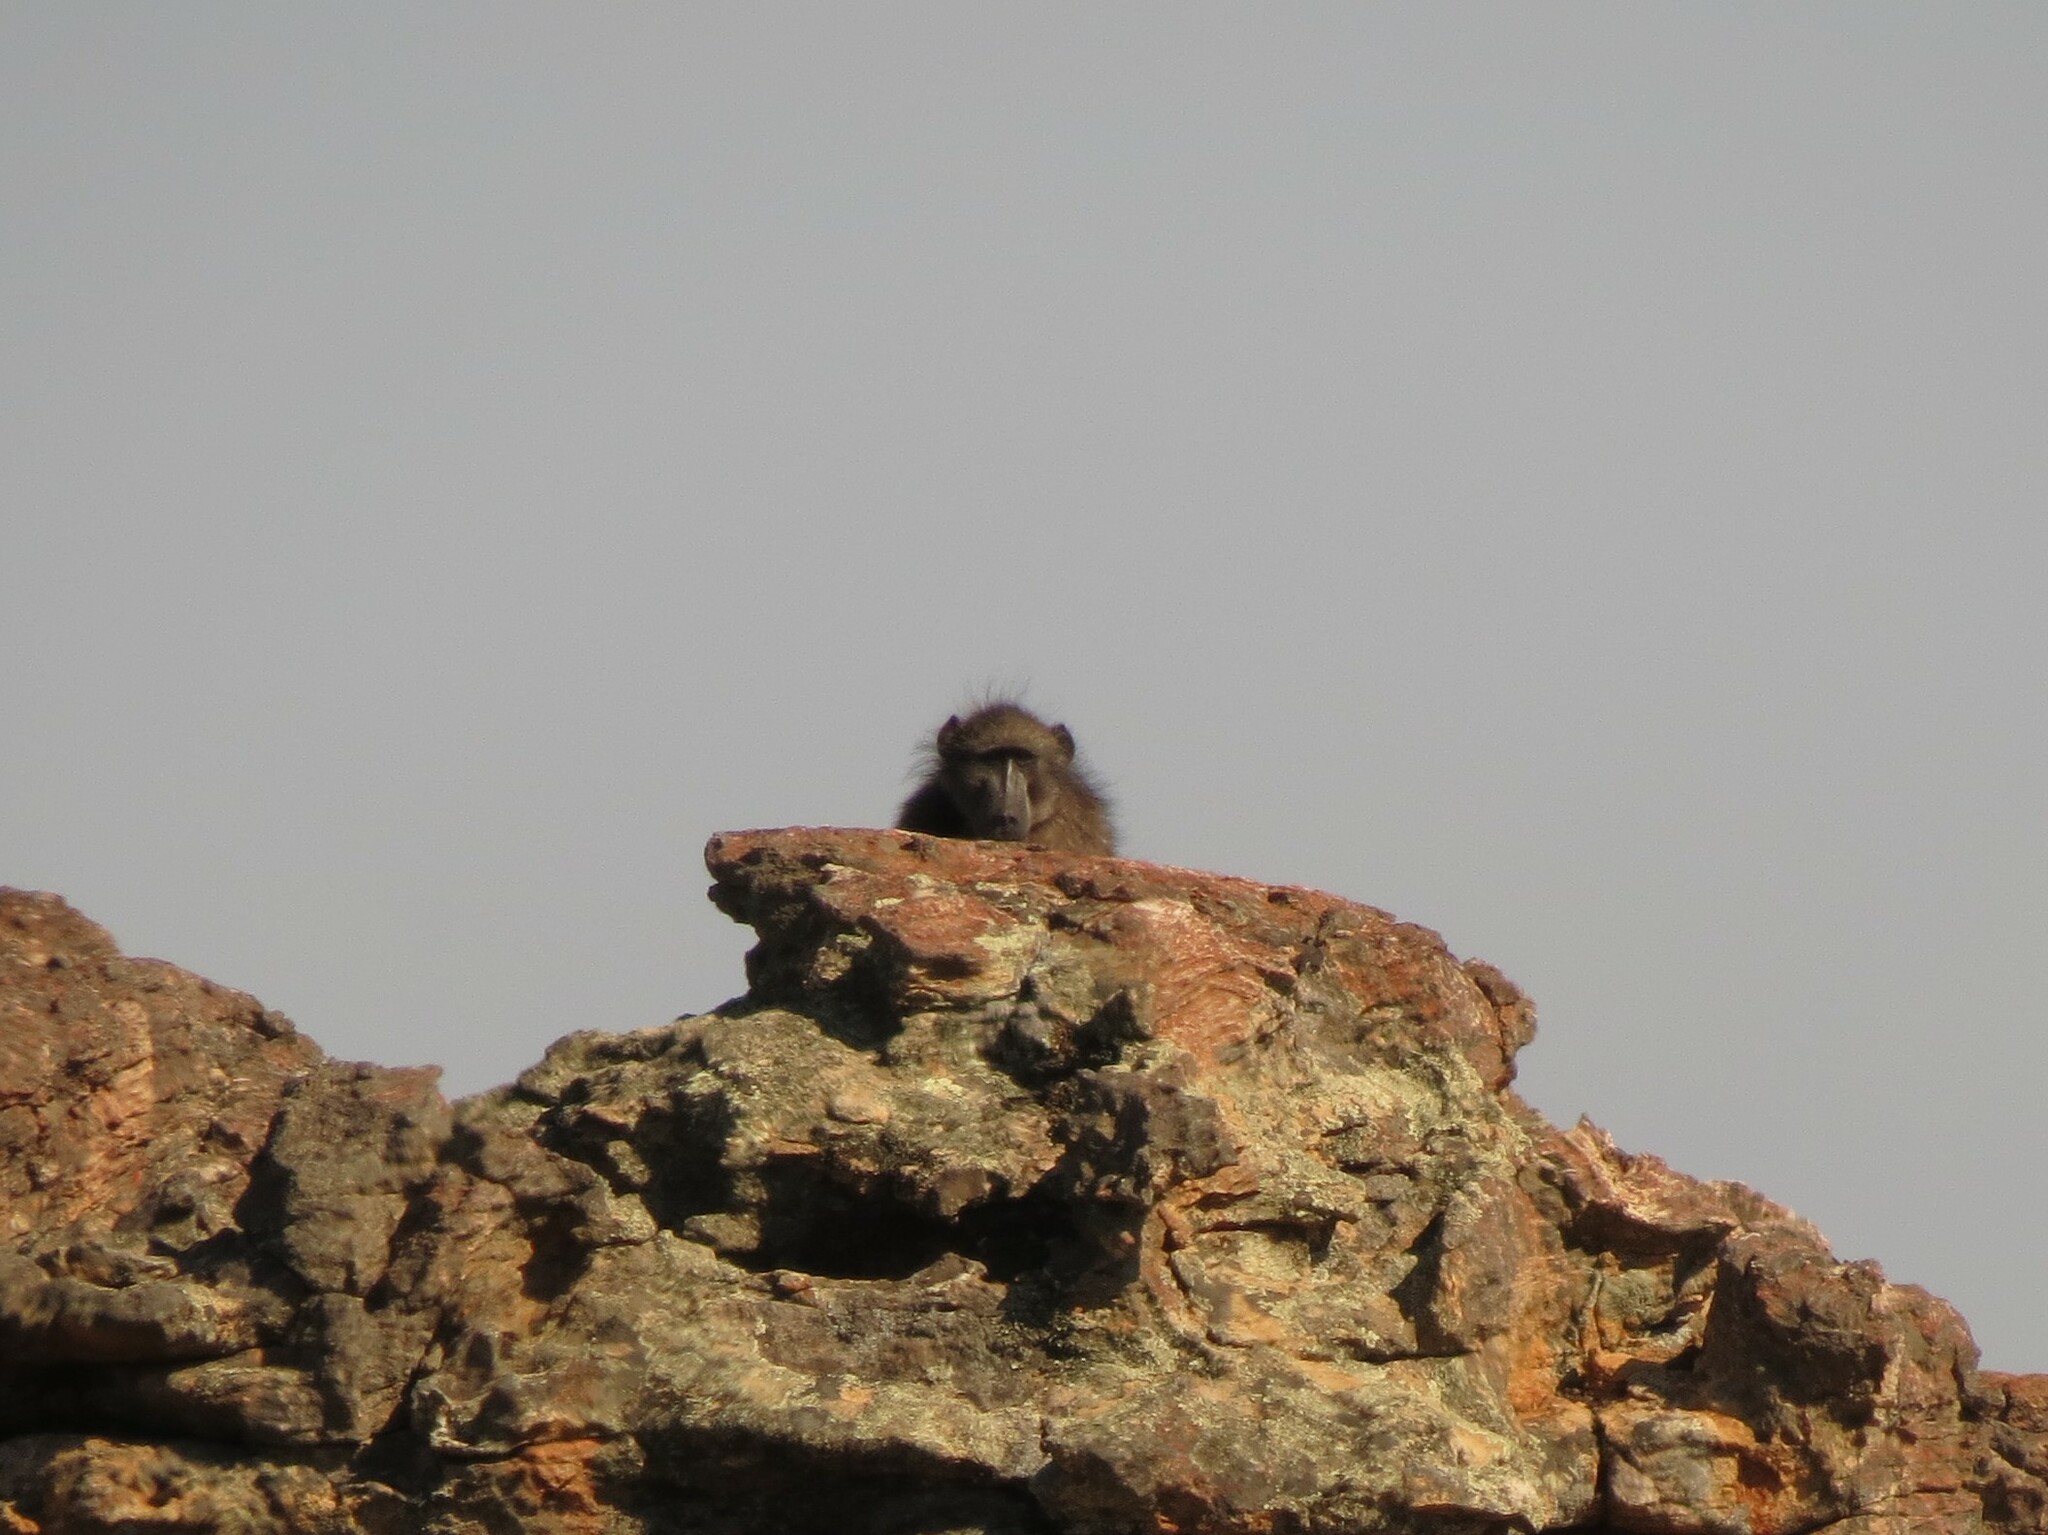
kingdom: Animalia
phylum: Chordata
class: Mammalia
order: Primates
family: Cercopithecidae
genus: Papio
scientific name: Papio ursinus
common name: Chacma baboon
